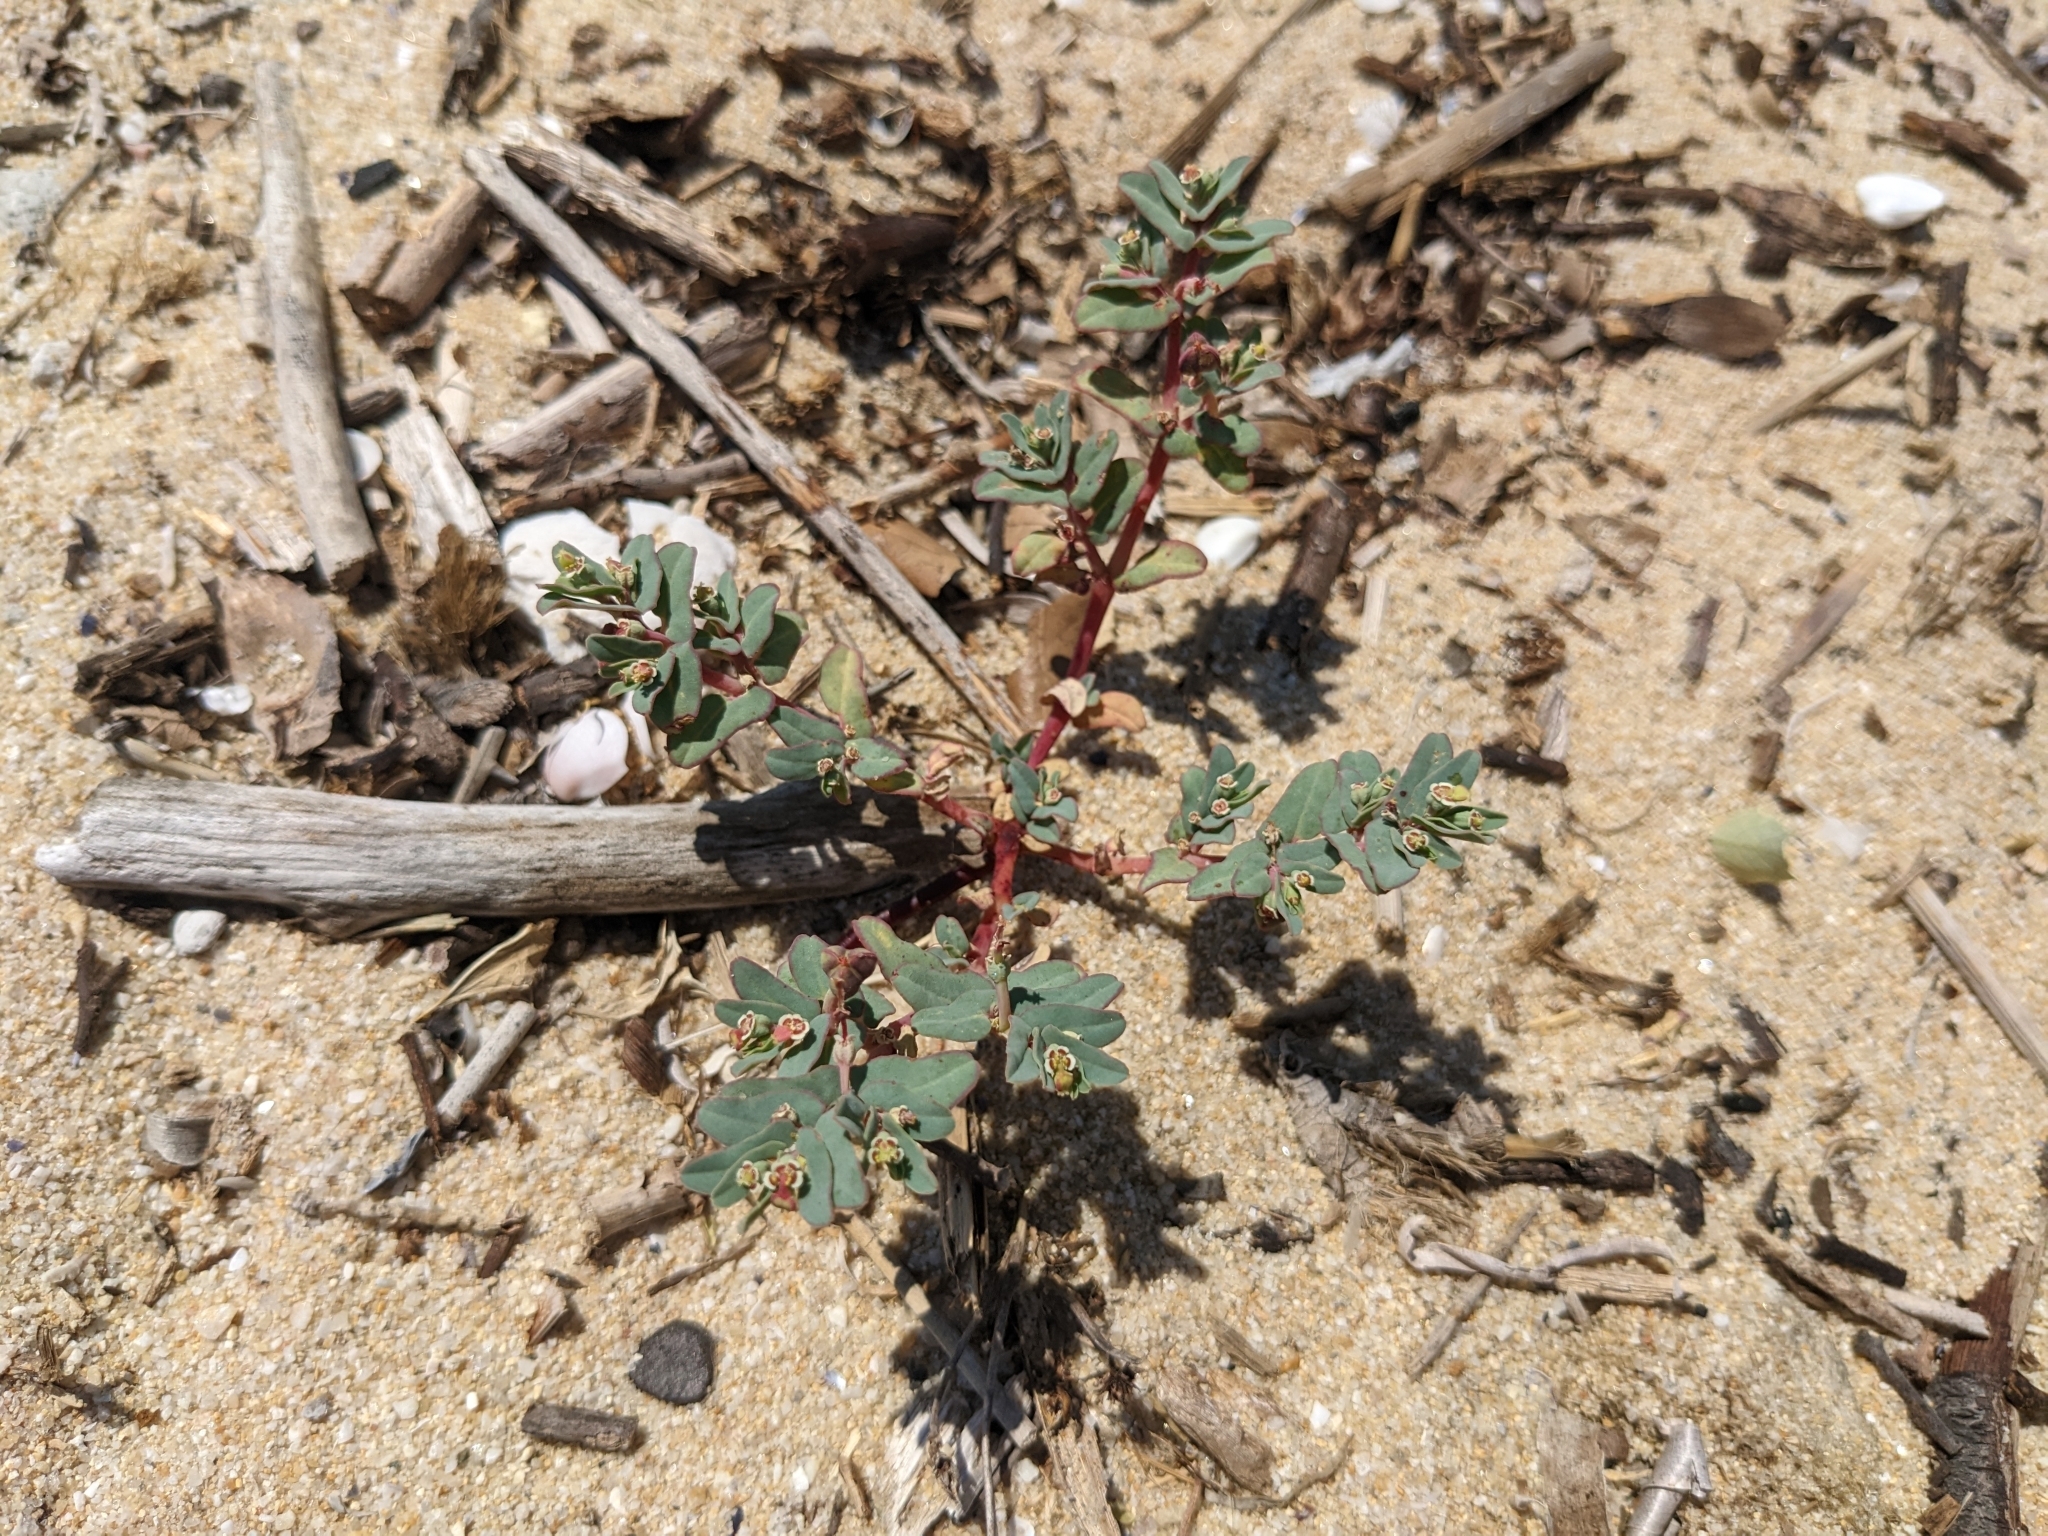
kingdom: Plantae
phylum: Tracheophyta
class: Magnoliopsida
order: Malpighiales
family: Euphorbiaceae
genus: Euphorbia
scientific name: Euphorbia peplis
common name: Purple spurge
